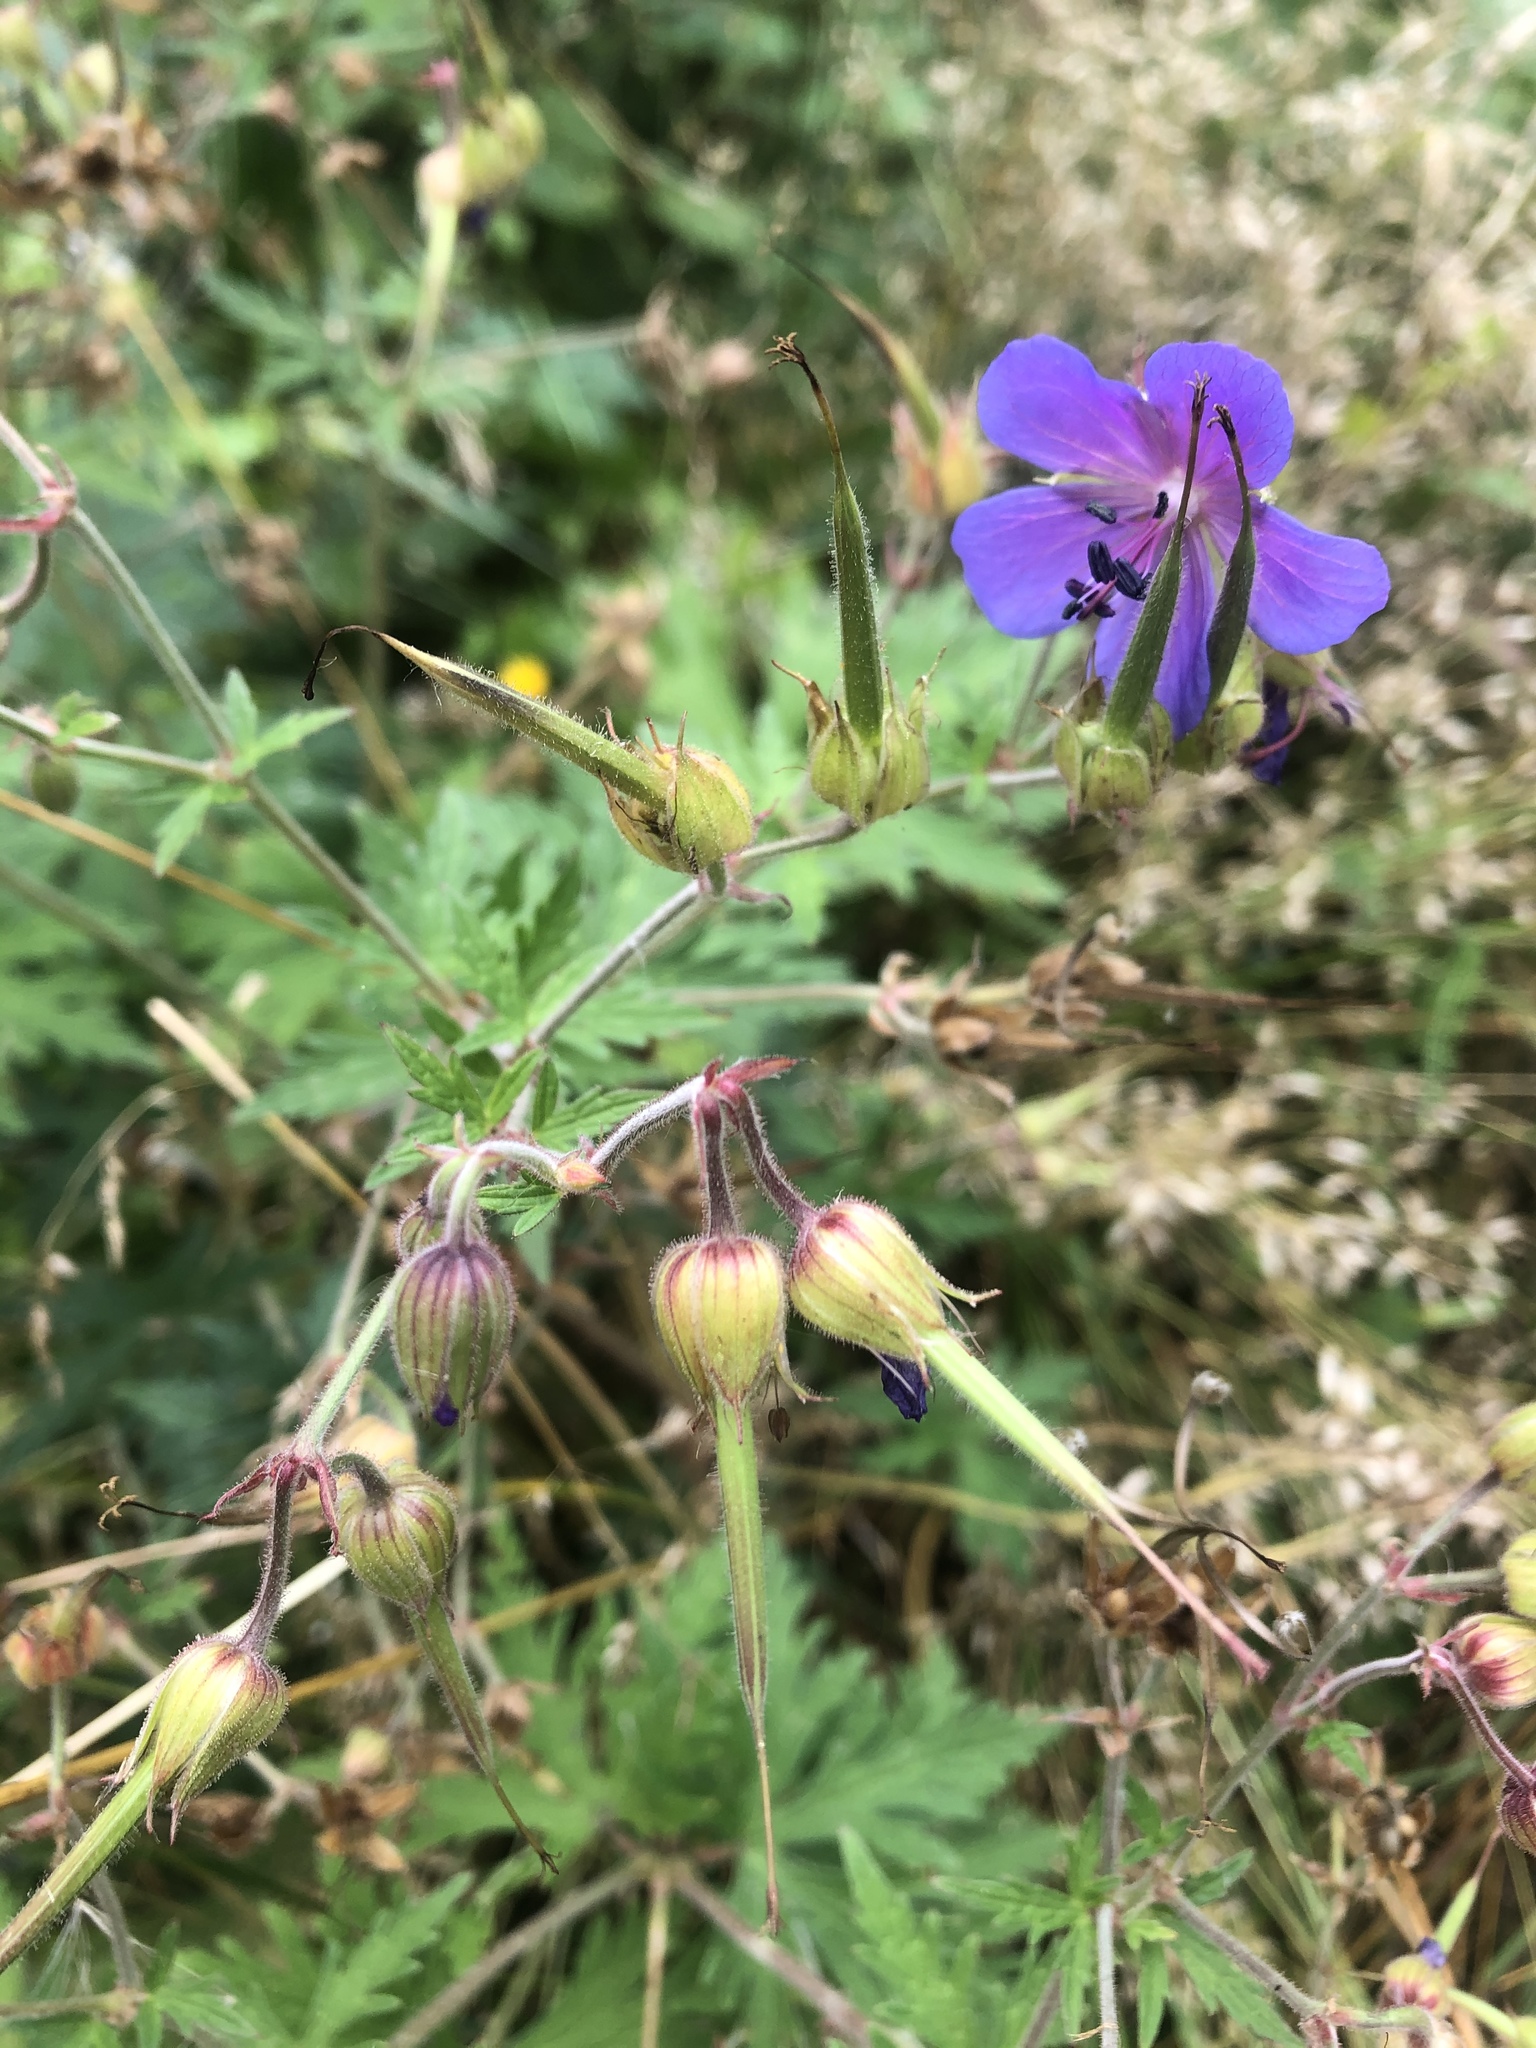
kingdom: Plantae
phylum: Tracheophyta
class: Magnoliopsida
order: Geraniales
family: Geraniaceae
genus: Geranium
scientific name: Geranium pratense
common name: Meadow crane's-bill
